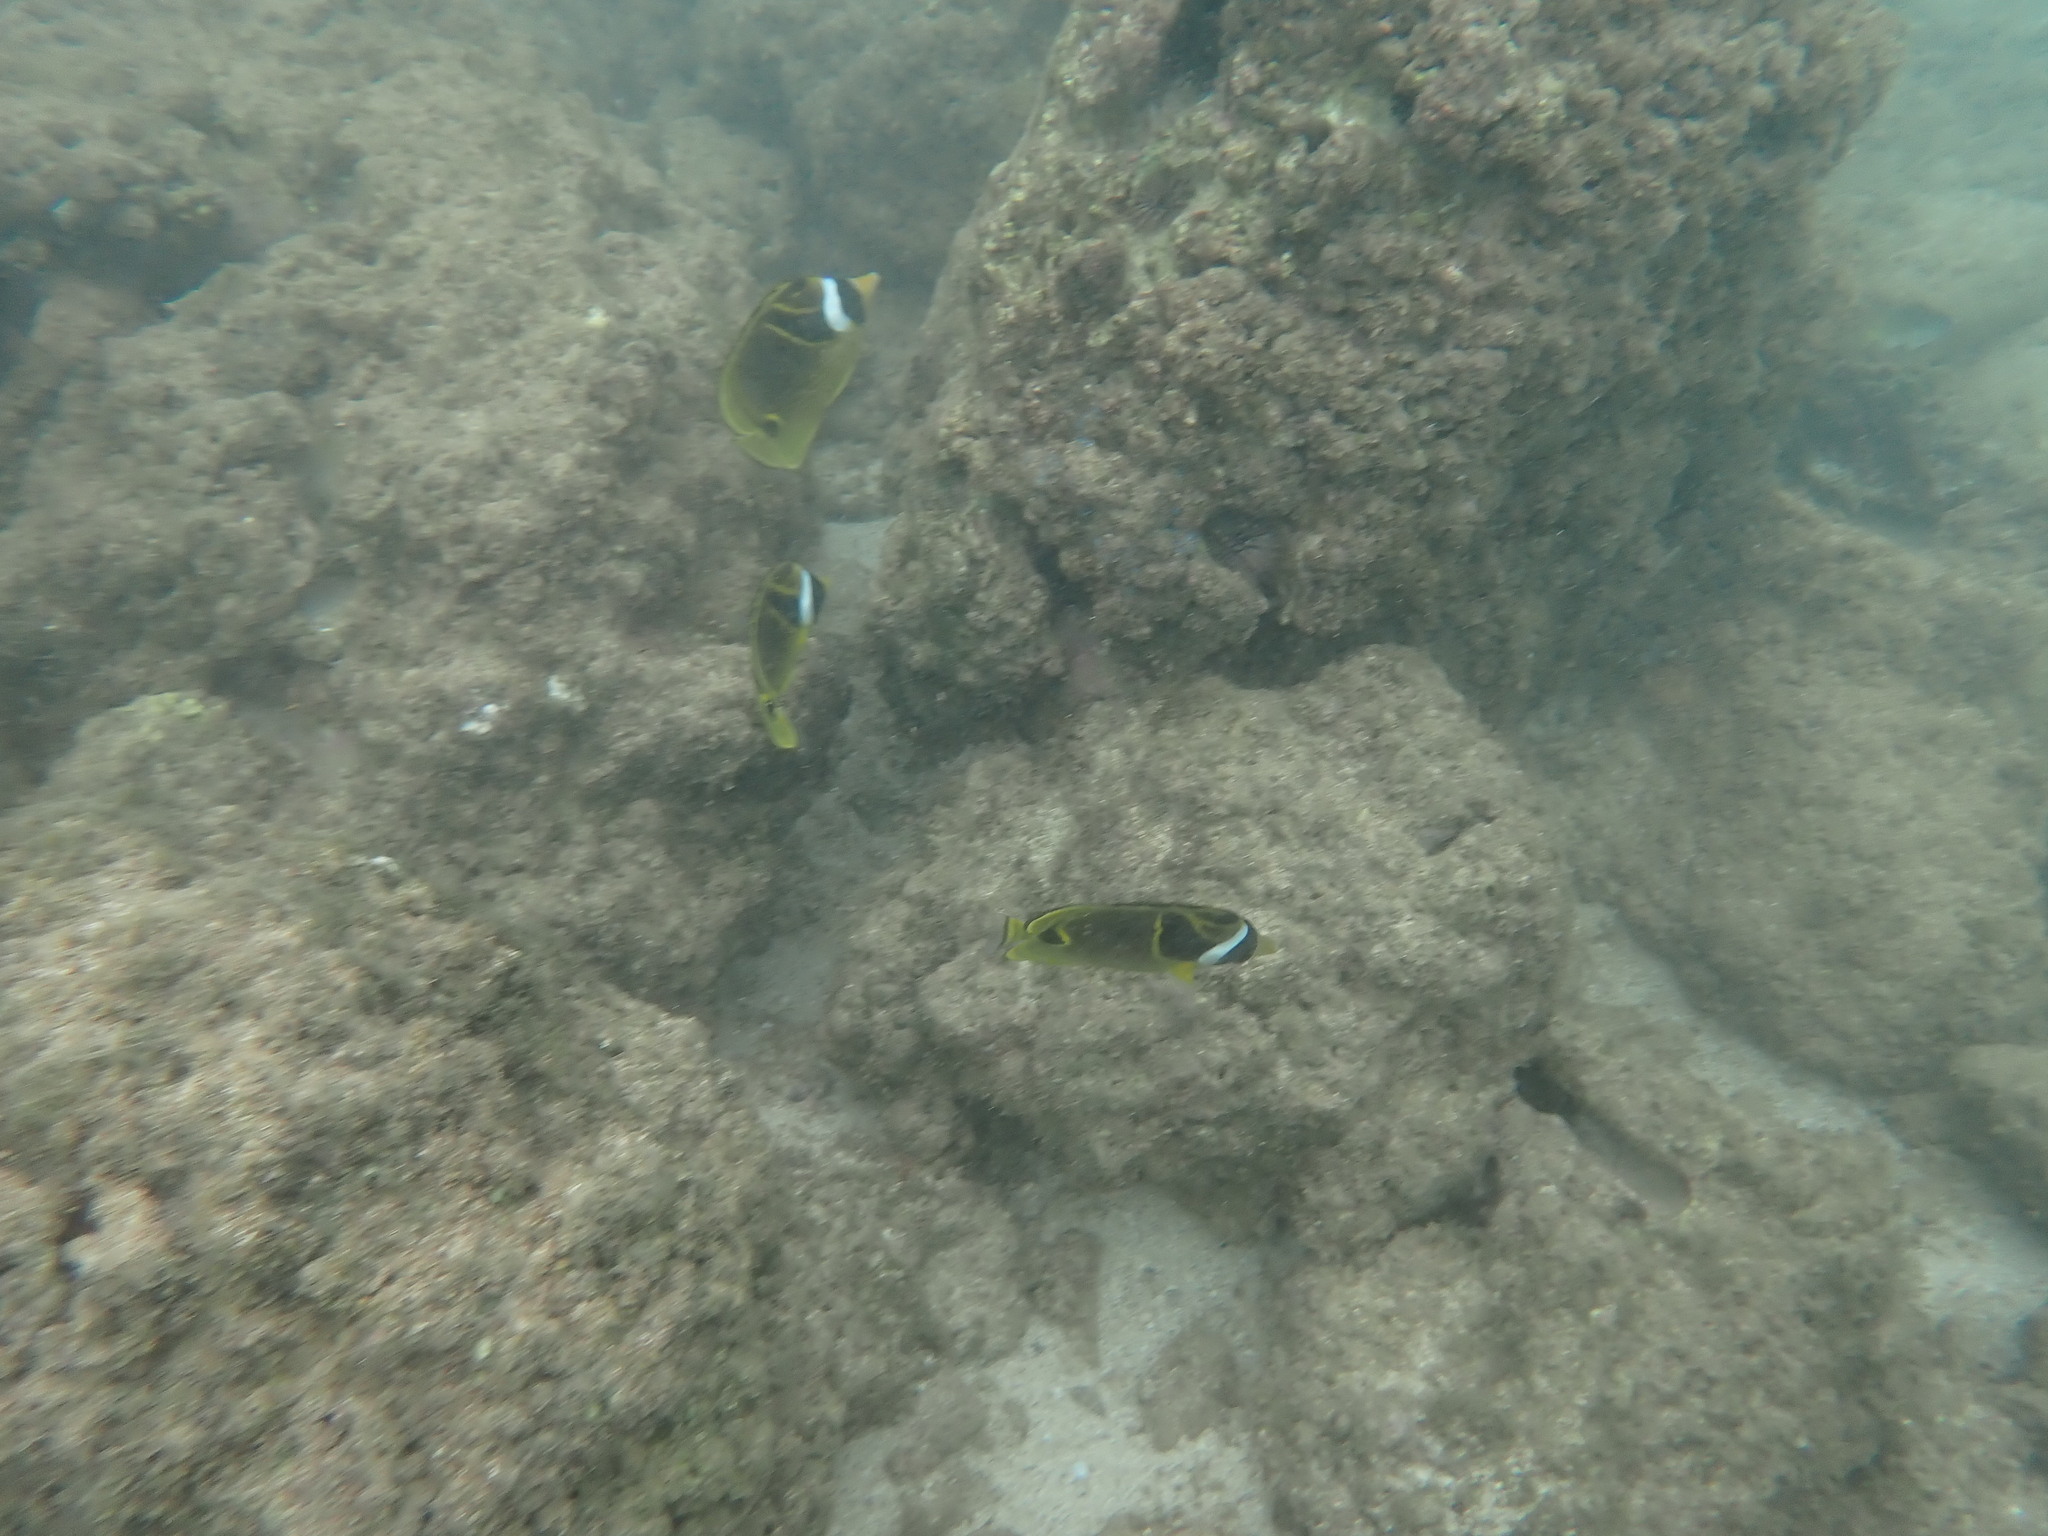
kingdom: Animalia
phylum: Chordata
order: Perciformes
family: Chaetodontidae
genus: Chaetodon
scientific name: Chaetodon lunula
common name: Raccoon butterflyfish
